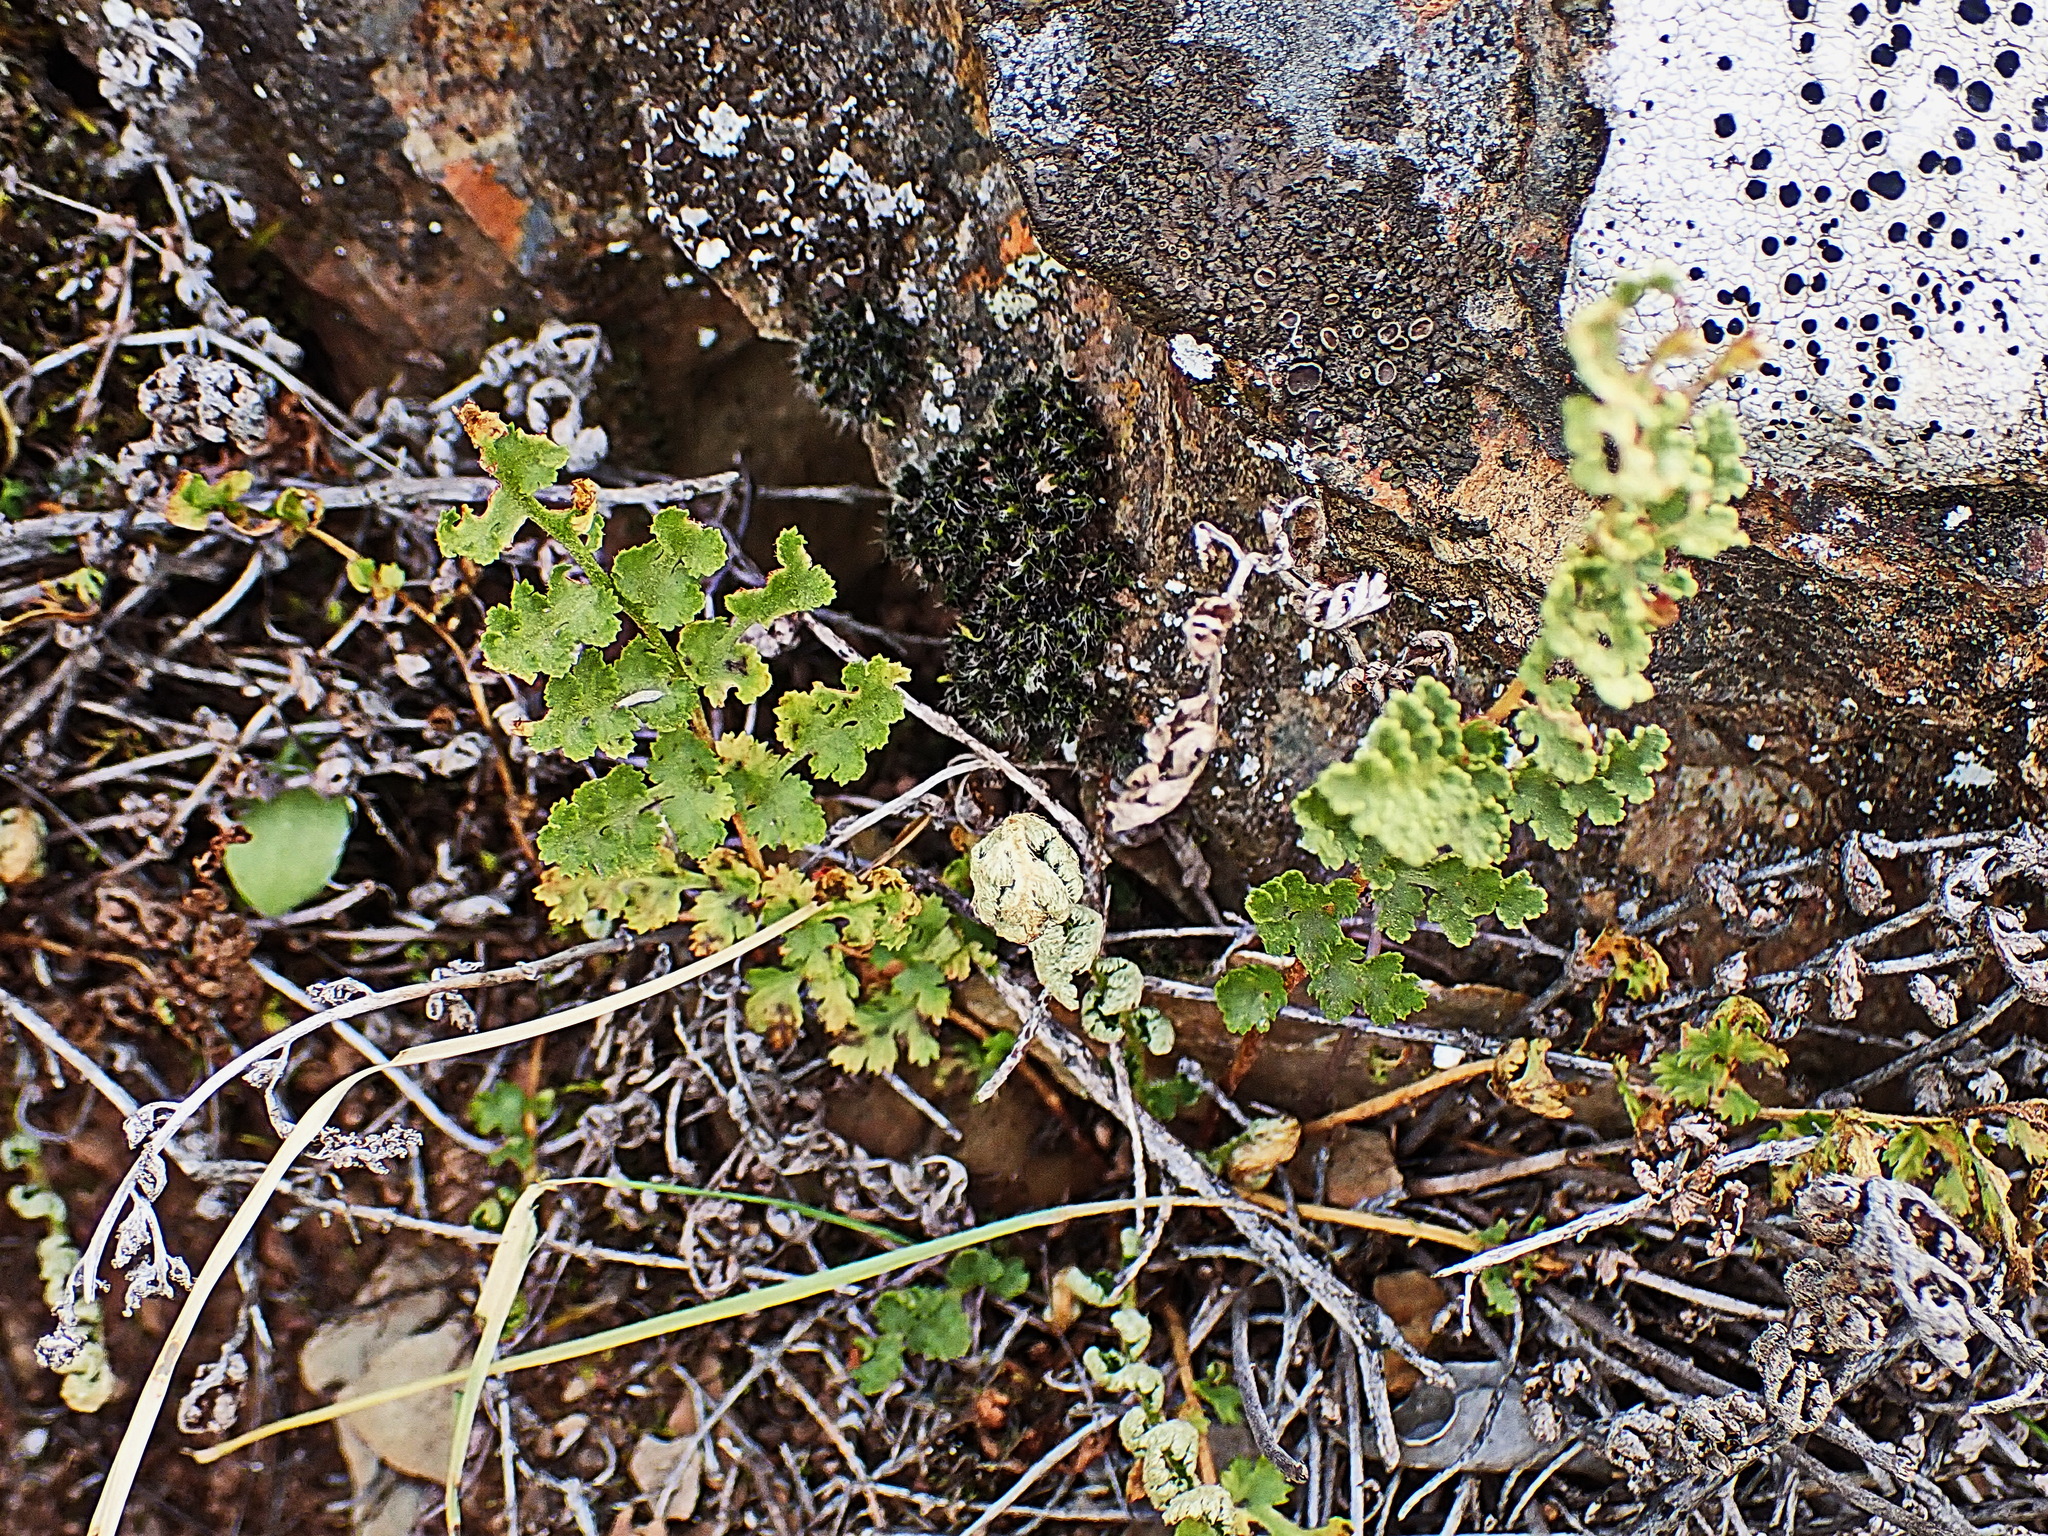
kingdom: Plantae
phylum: Tracheophyta
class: Polypodiopsida
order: Schizaeales
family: Anemiaceae
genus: Anemia
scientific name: Anemia caffrorum
